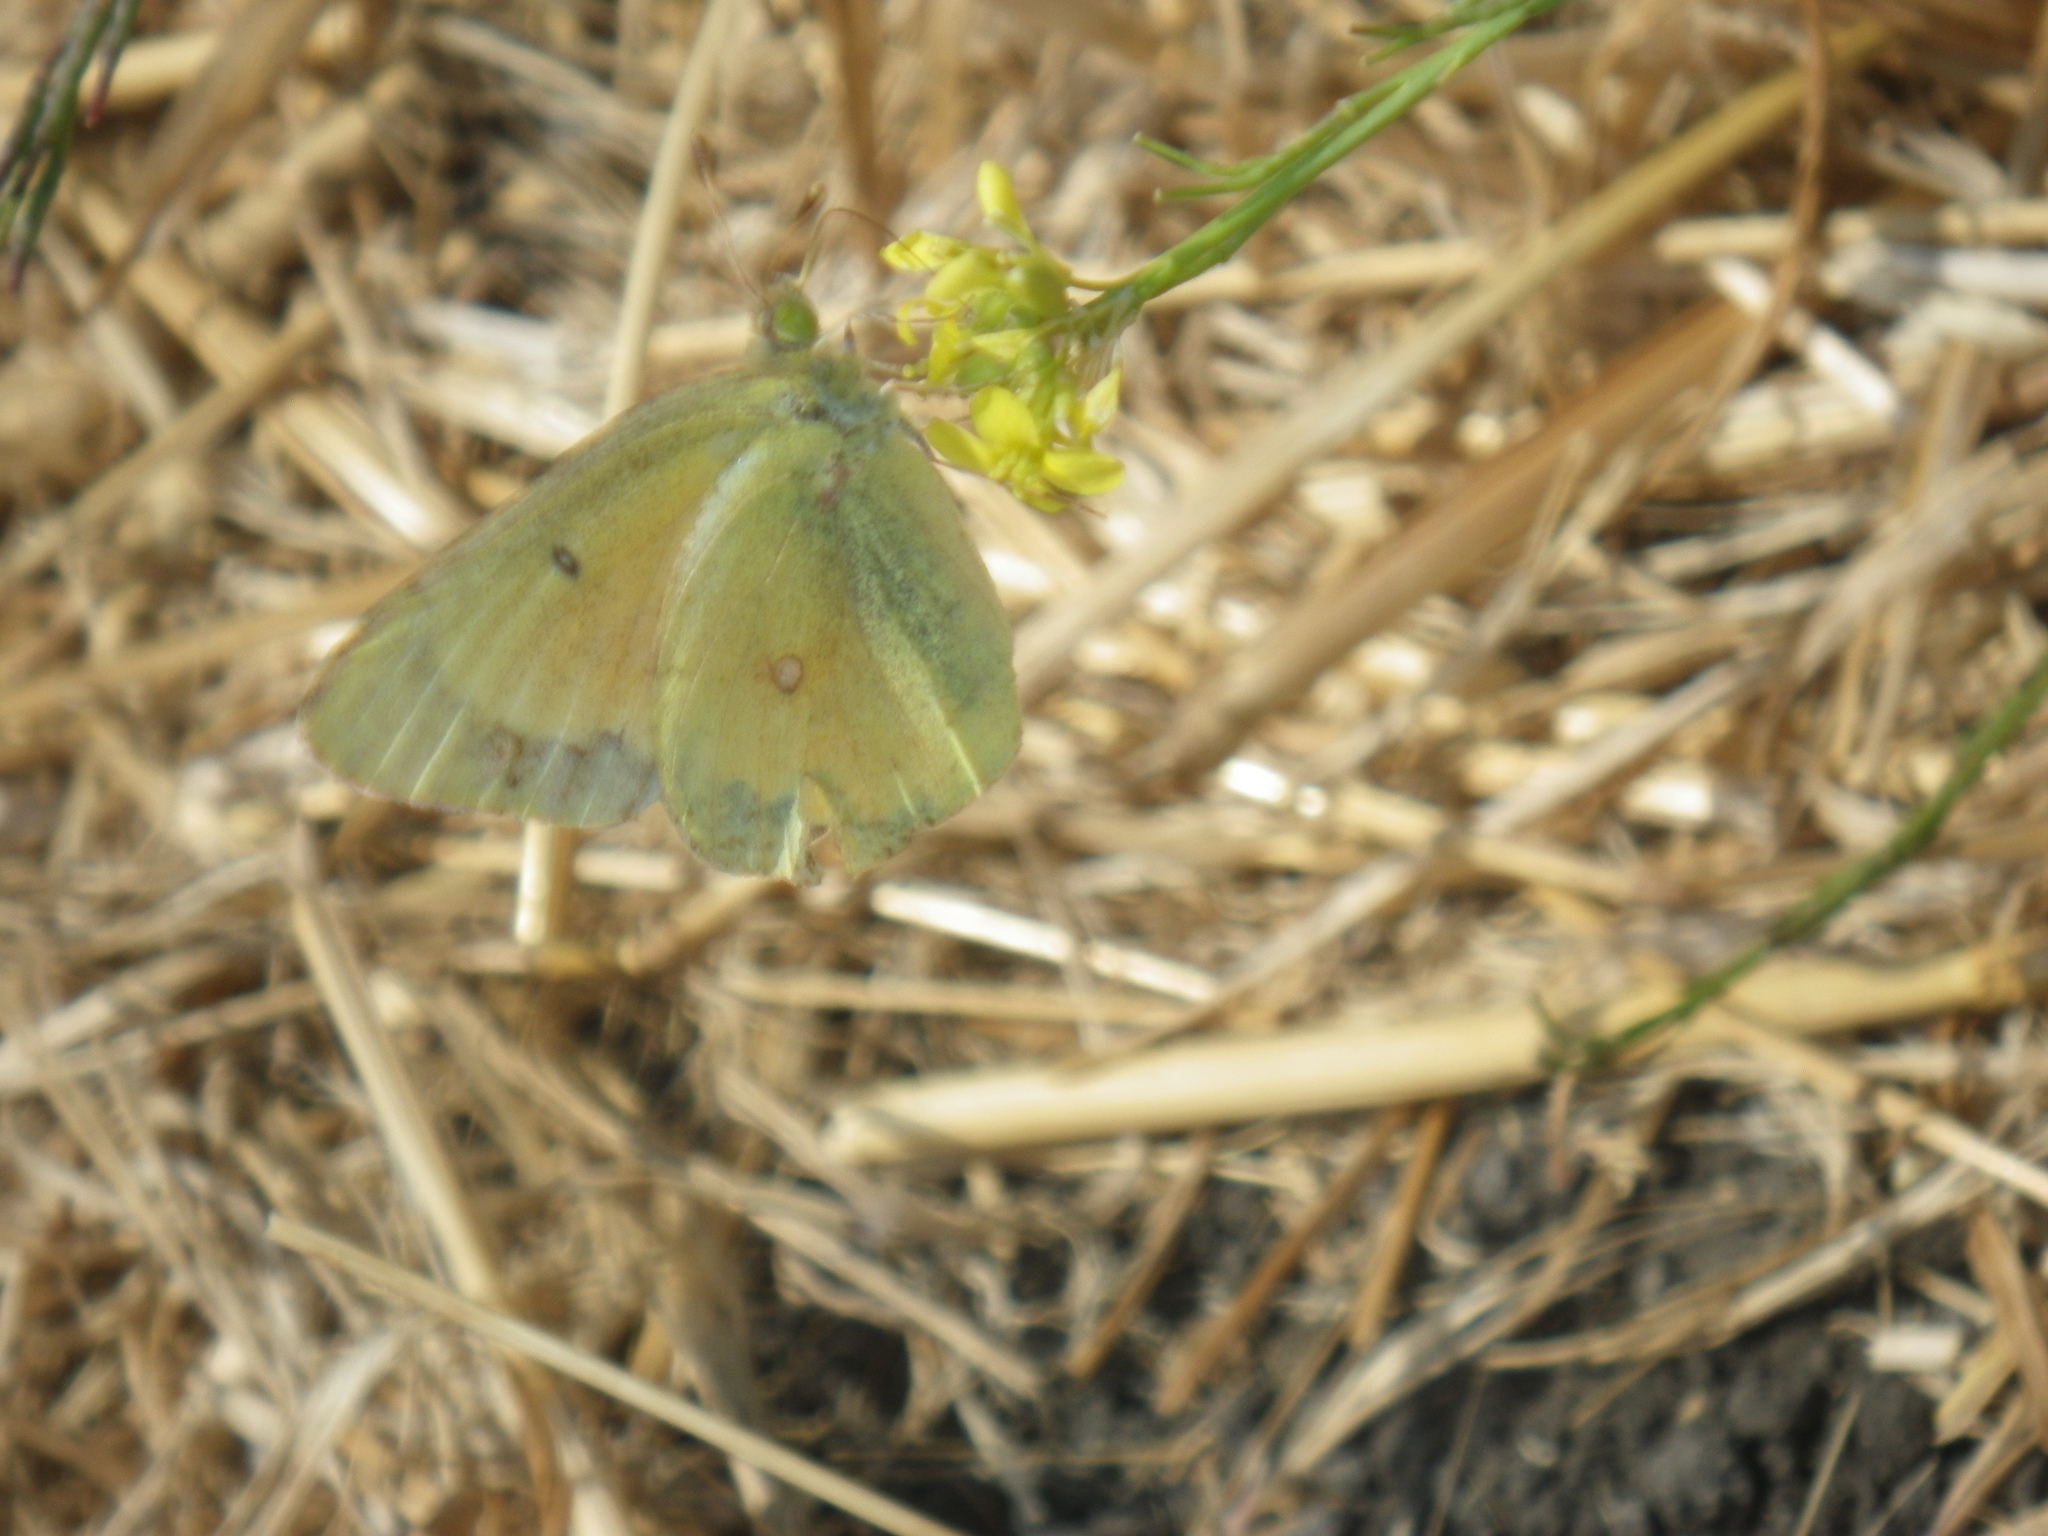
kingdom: Animalia
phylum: Arthropoda
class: Insecta
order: Lepidoptera
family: Pieridae
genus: Colias
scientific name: Colias eurytheme
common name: Alfalfa butterfly
